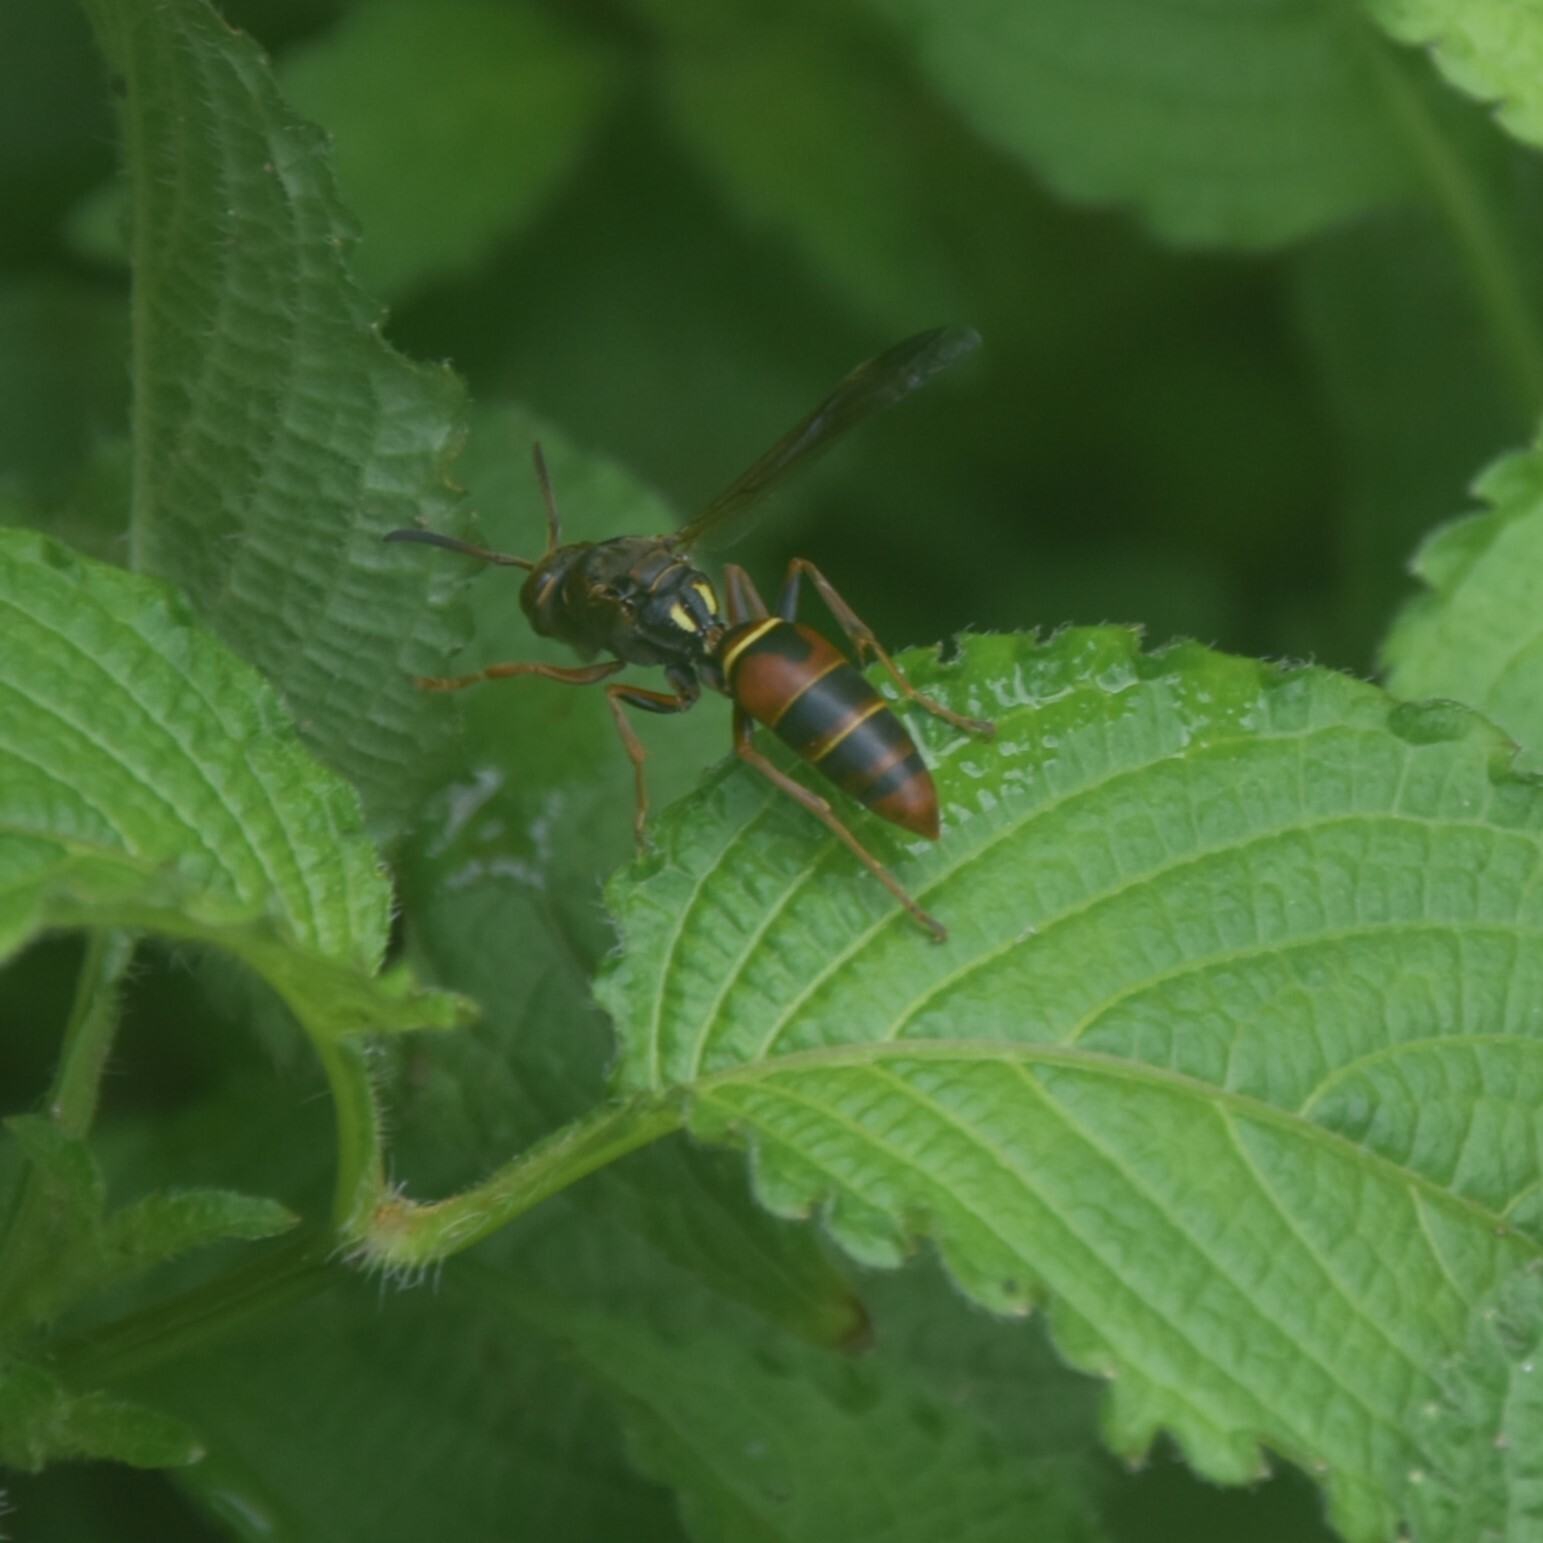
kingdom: Animalia
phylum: Arthropoda
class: Insecta
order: Hymenoptera
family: Eumenidae
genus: Knemodynerus
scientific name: Knemodynerus multimaculatus
